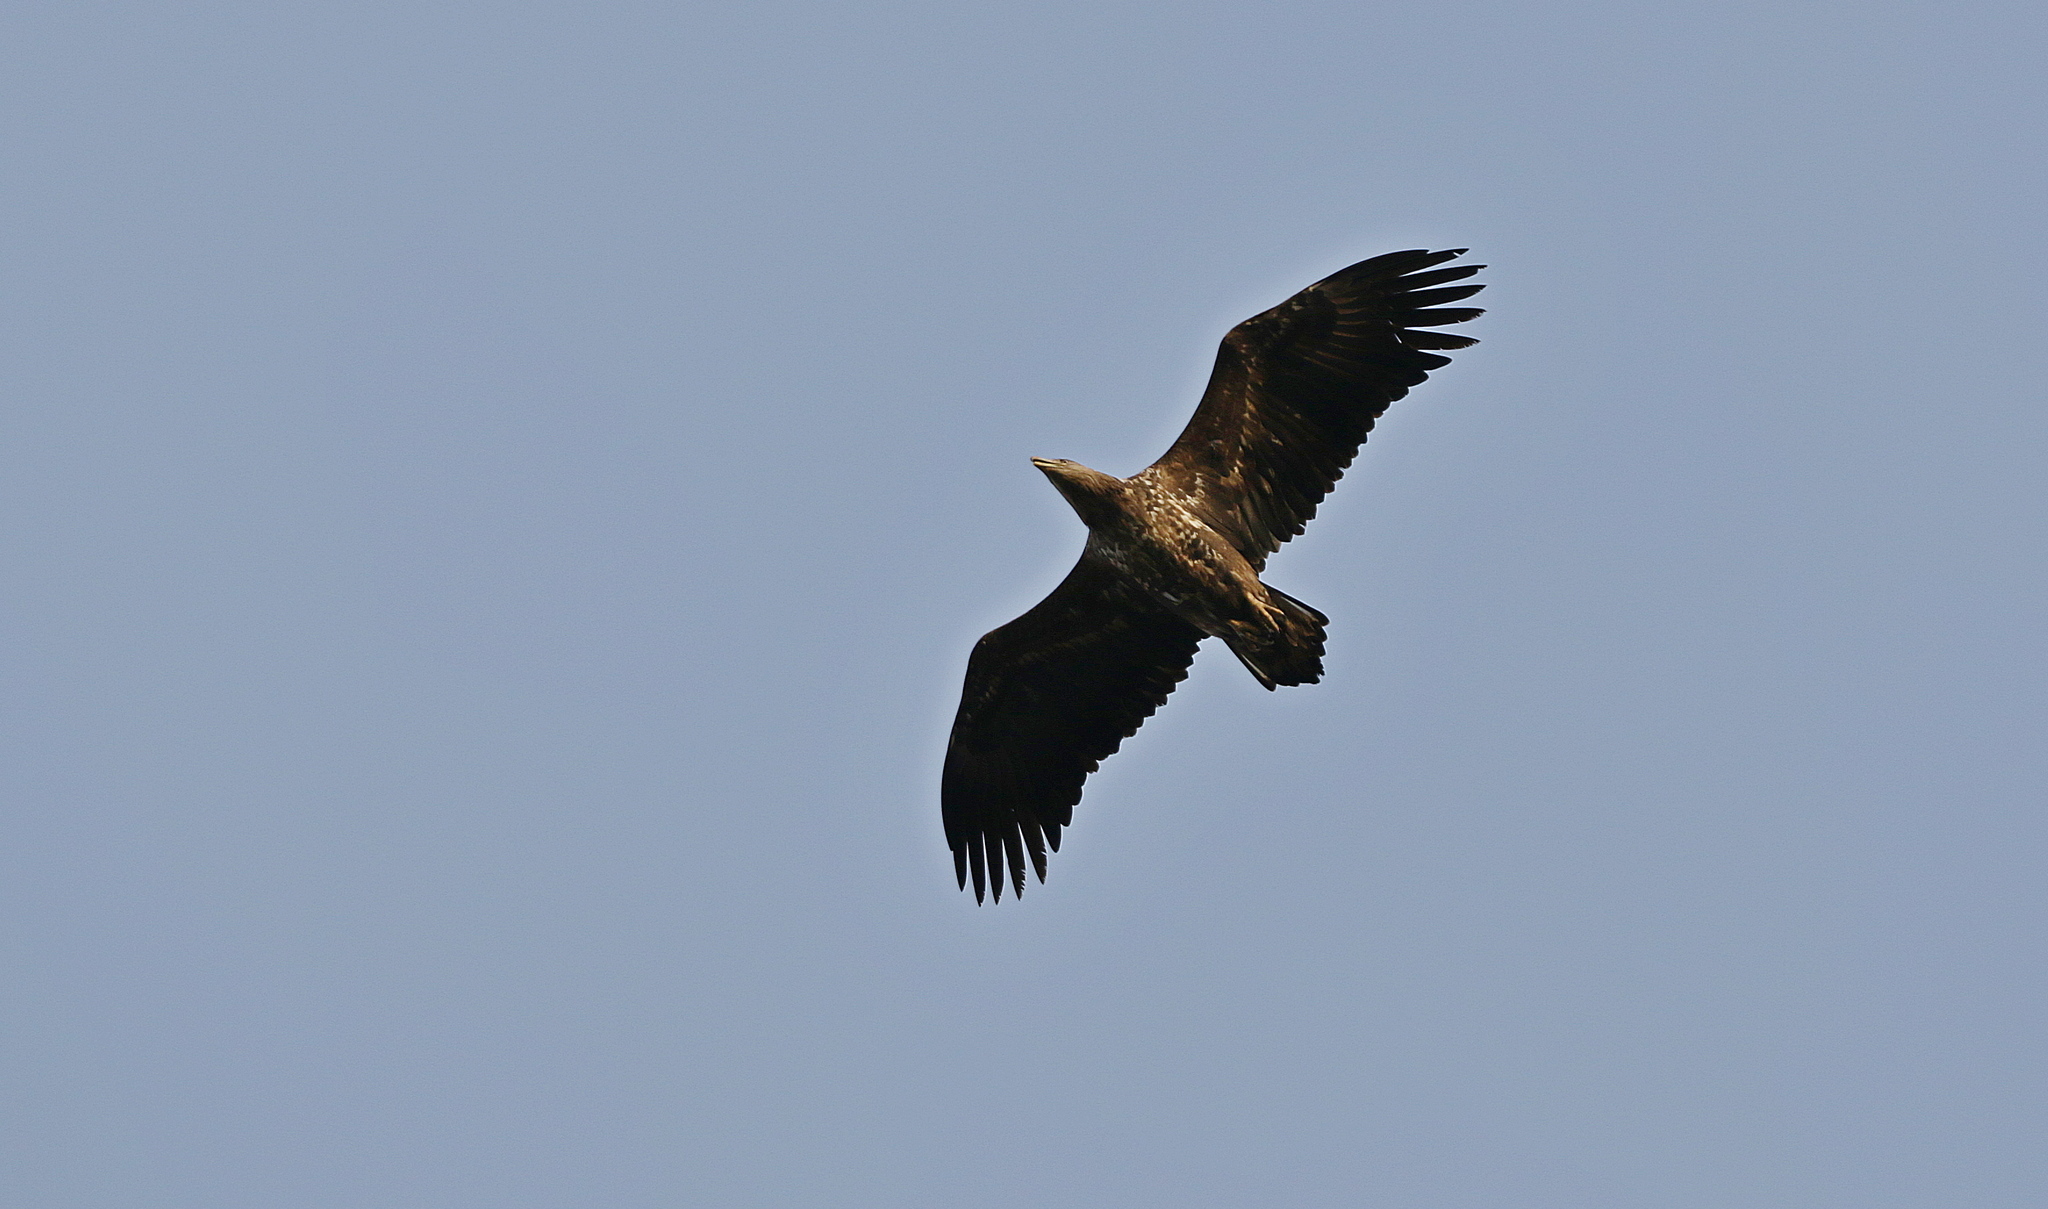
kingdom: Animalia
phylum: Chordata
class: Aves
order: Accipitriformes
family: Accipitridae
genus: Haliaeetus
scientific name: Haliaeetus albicilla
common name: White-tailed eagle
